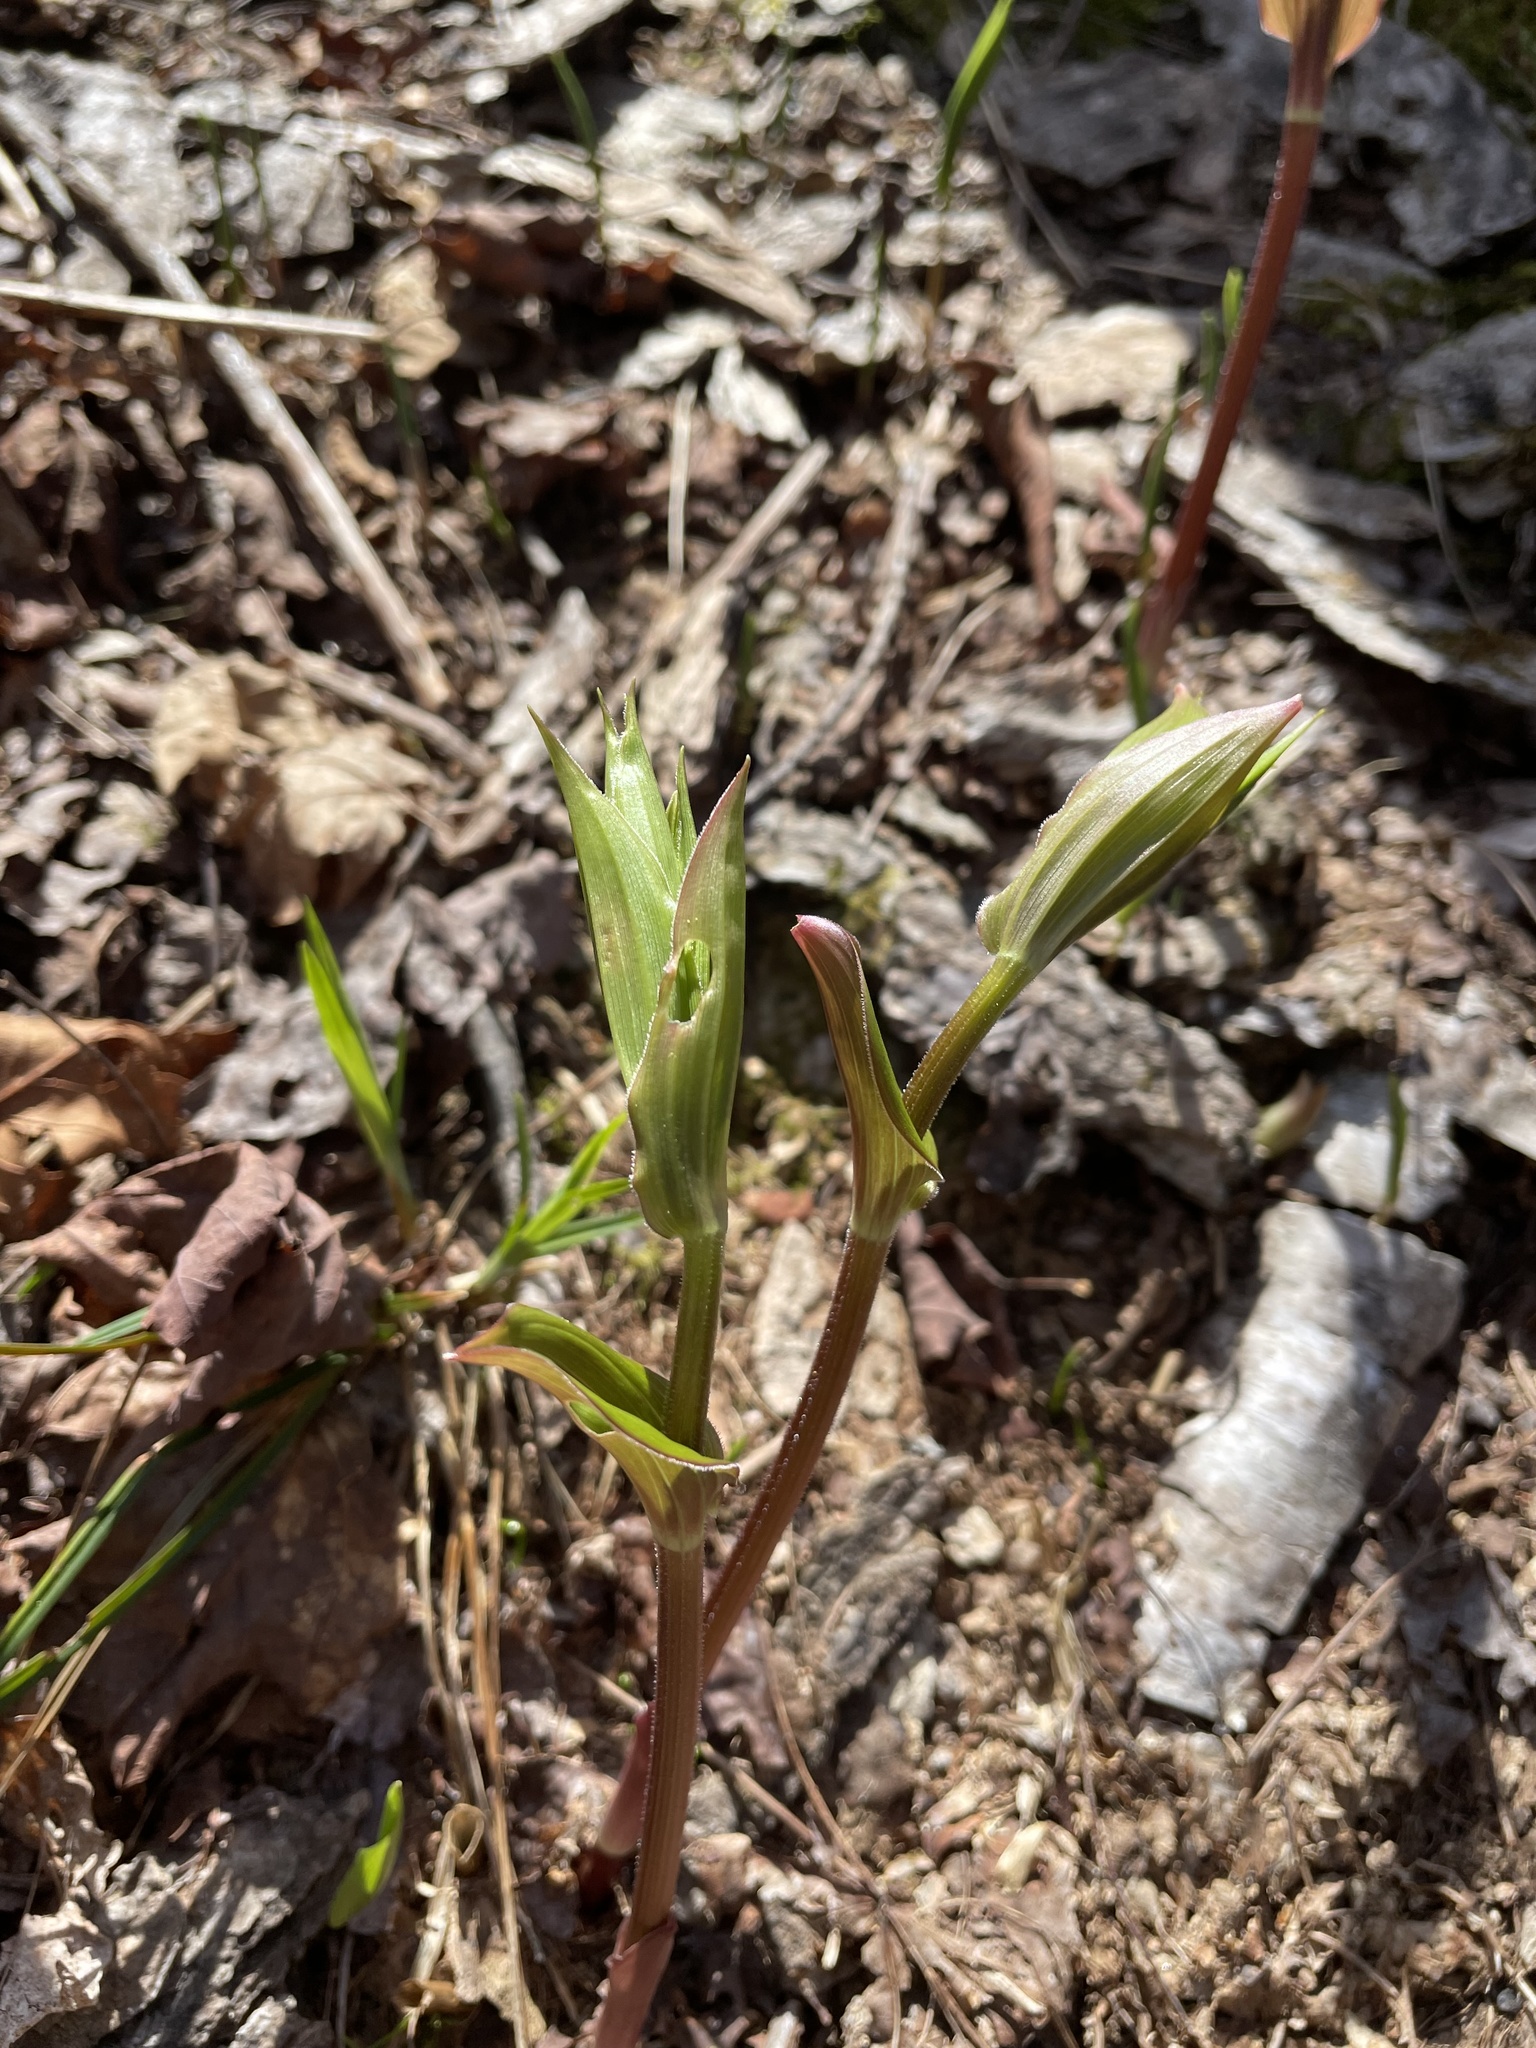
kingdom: Plantae
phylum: Tracheophyta
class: Liliopsida
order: Liliales
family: Liliaceae
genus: Streptopus
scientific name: Streptopus lanceolatus
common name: Rose mandarin
